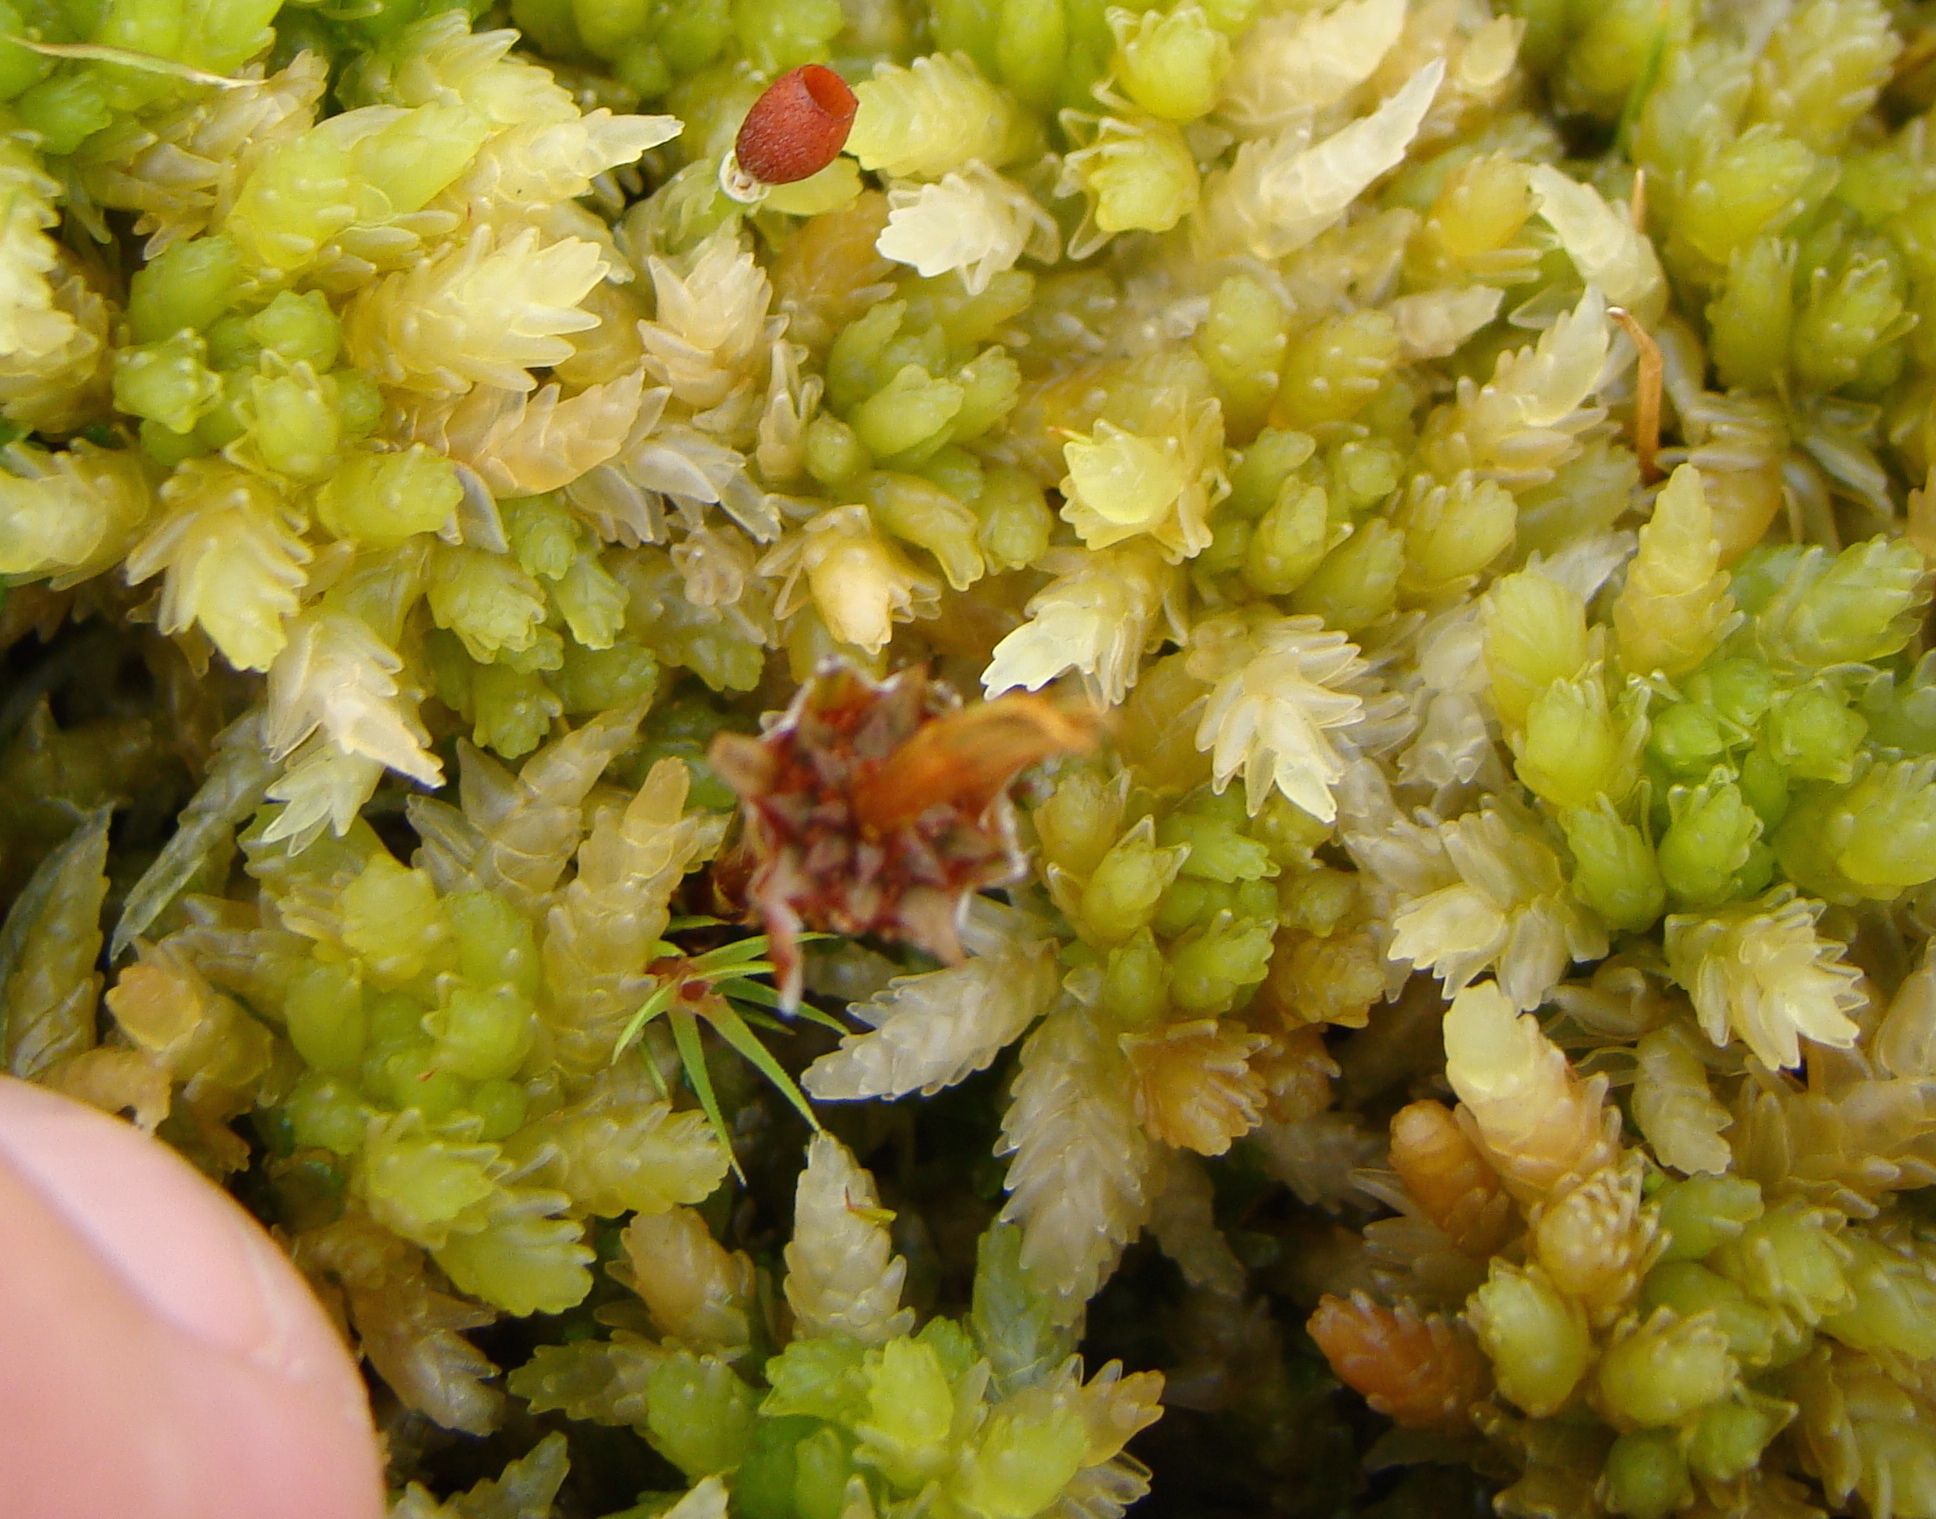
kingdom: Plantae
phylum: Bryophyta
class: Sphagnopsida
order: Sphagnales
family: Sphagnaceae
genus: Sphagnum
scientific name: Sphagnum cristatum
